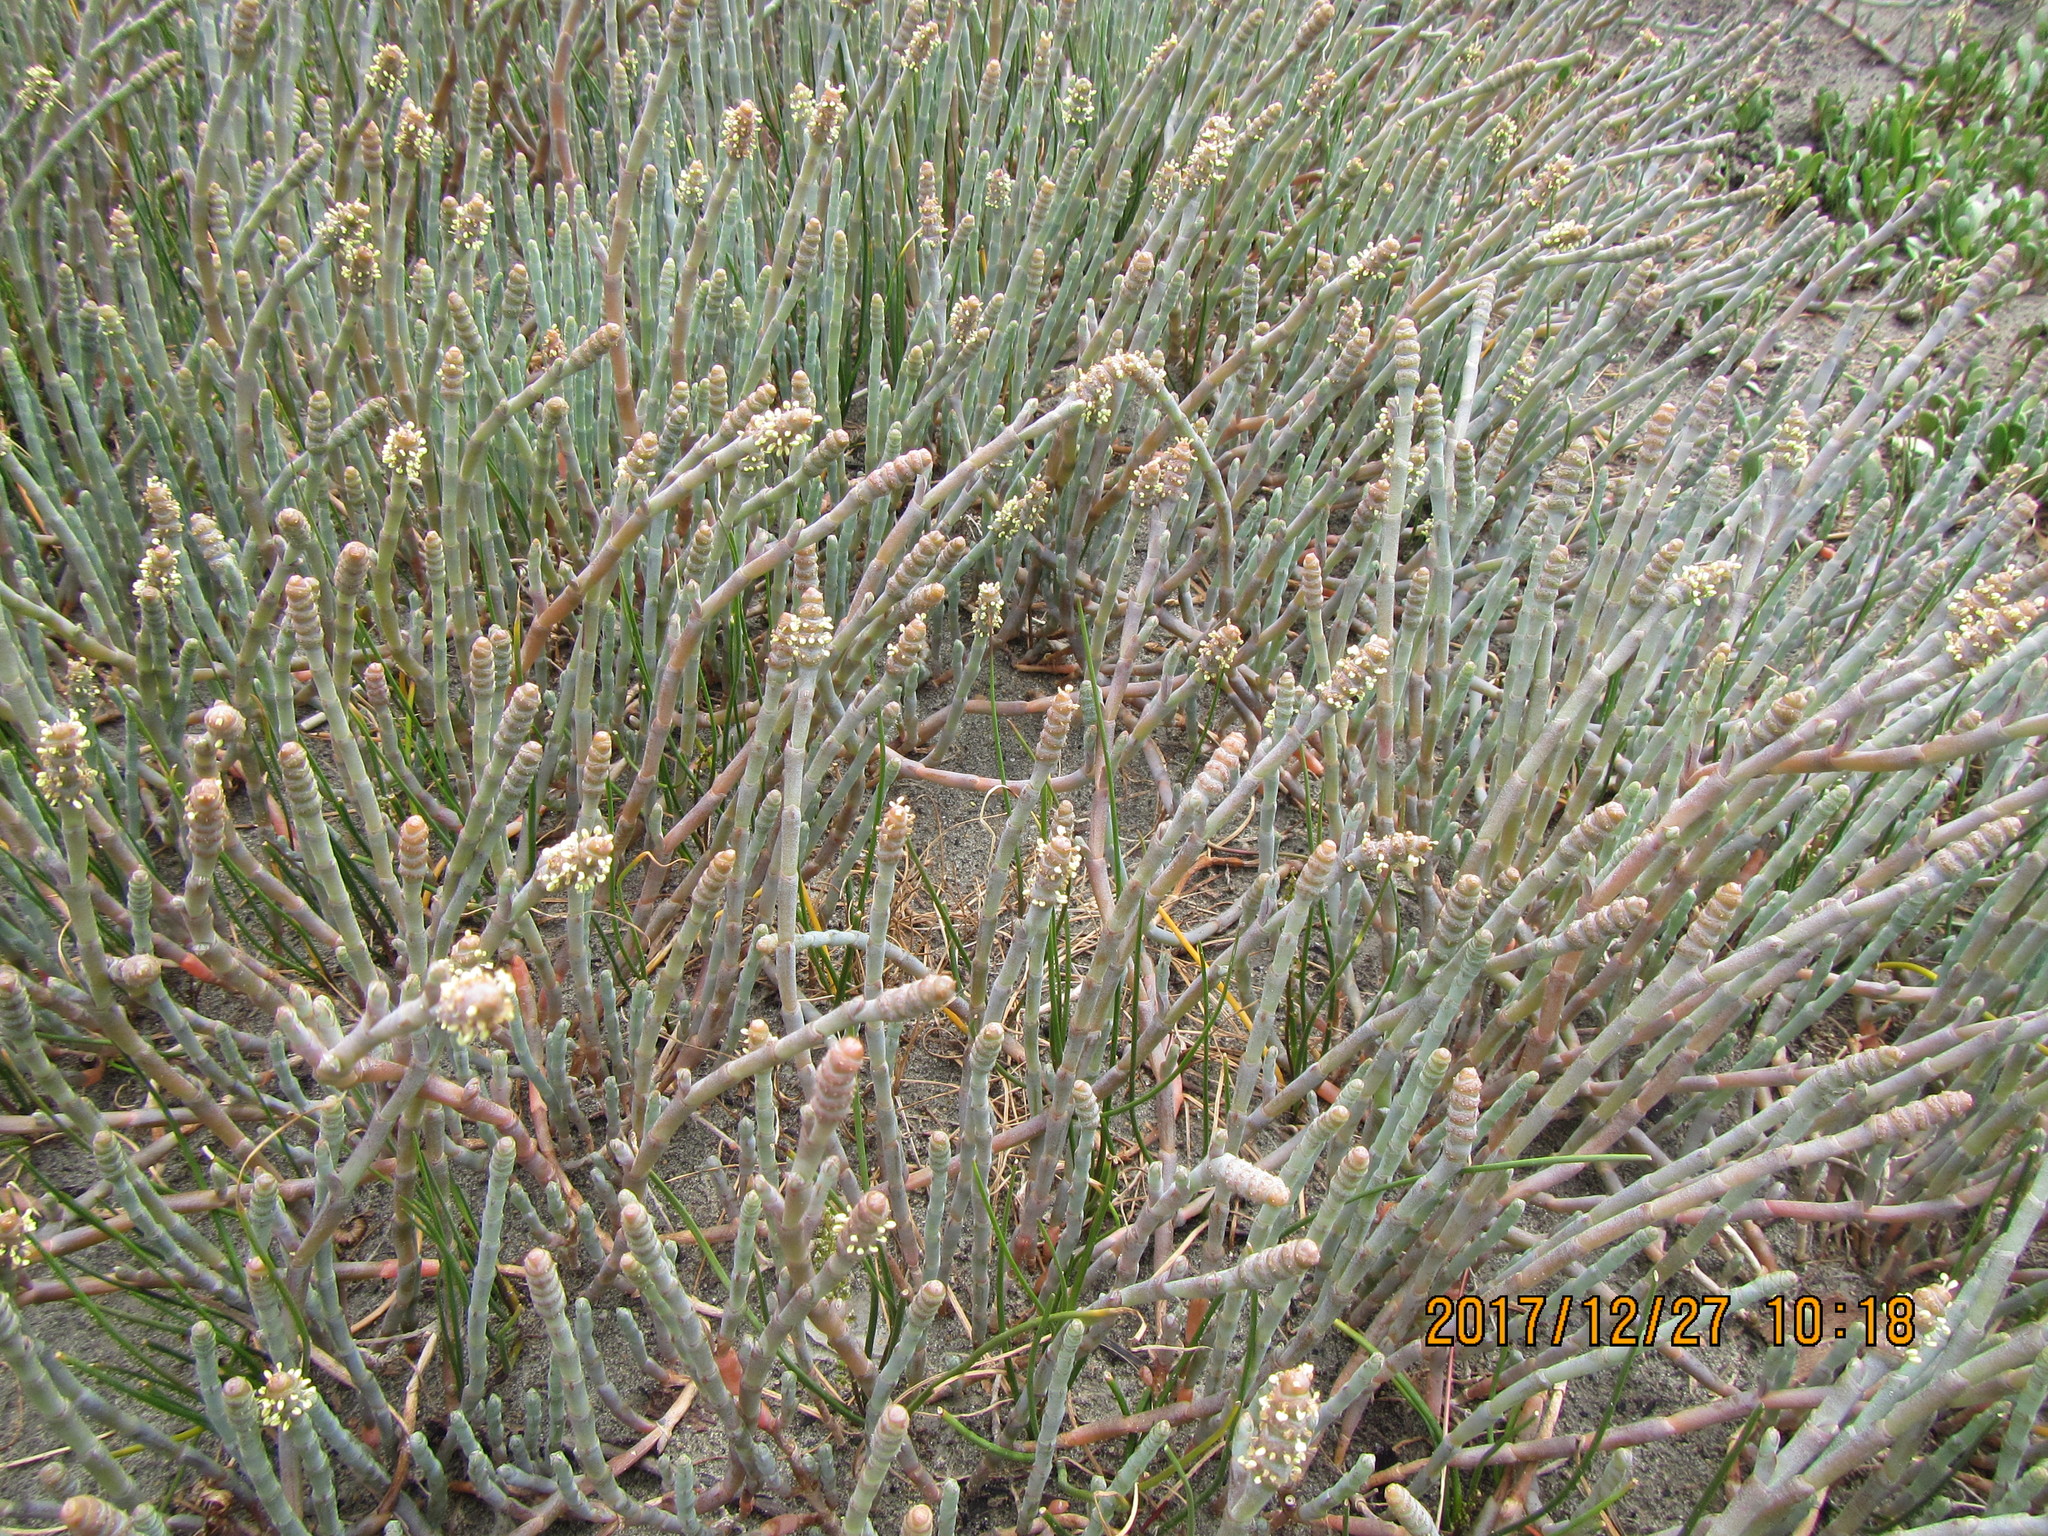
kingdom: Plantae
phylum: Tracheophyta
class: Magnoliopsida
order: Caryophyllales
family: Amaranthaceae
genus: Salicornia
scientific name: Salicornia quinqueflora
